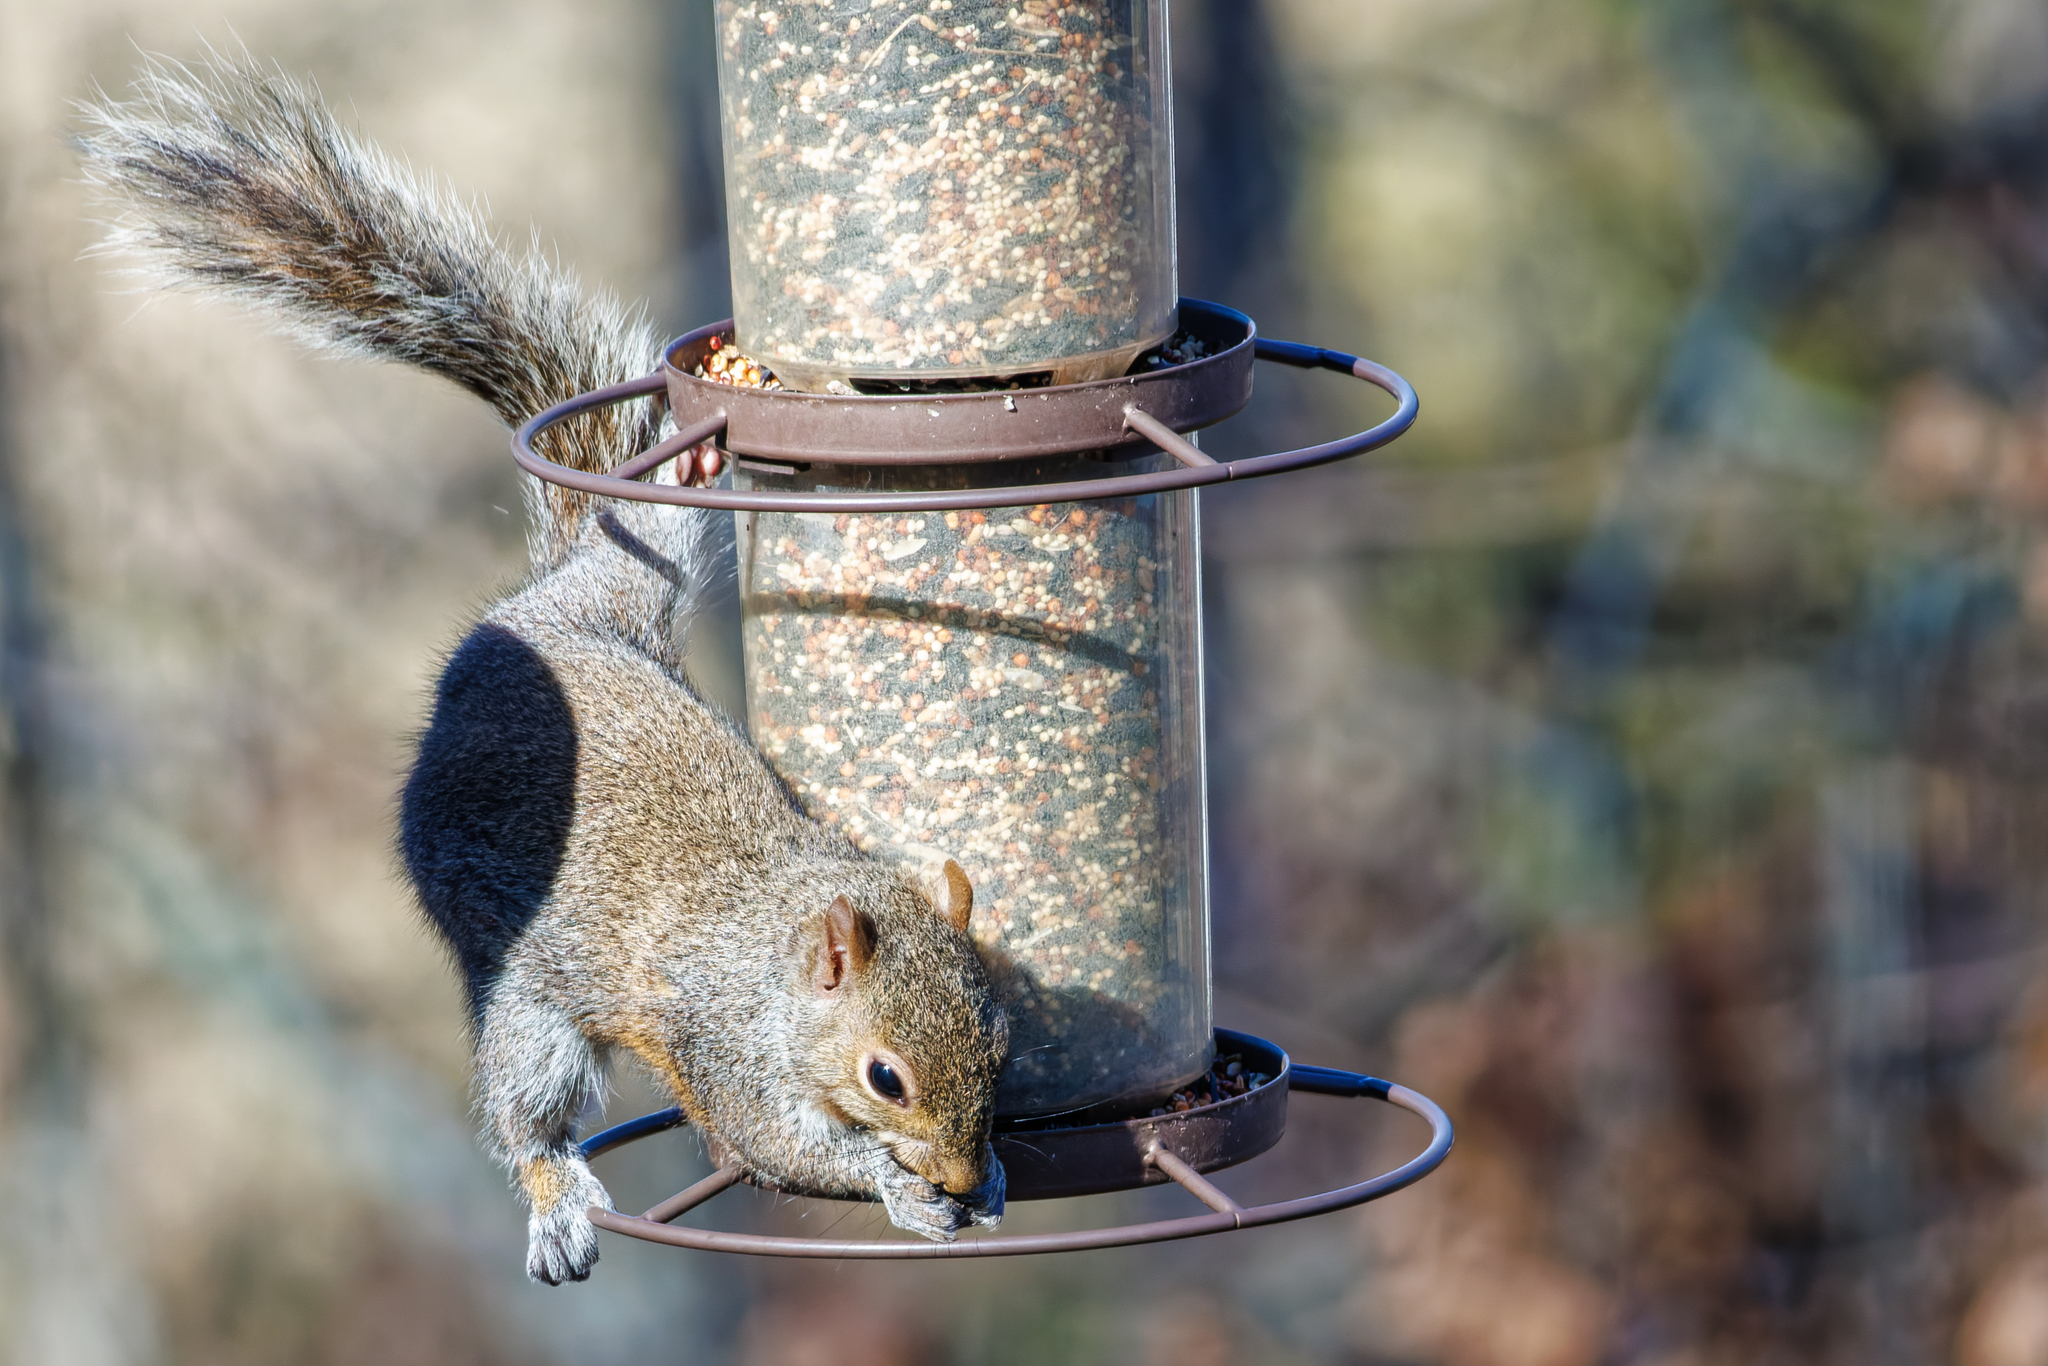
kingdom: Animalia
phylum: Chordata
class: Mammalia
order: Rodentia
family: Sciuridae
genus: Sciurus
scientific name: Sciurus carolinensis
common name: Eastern gray squirrel
